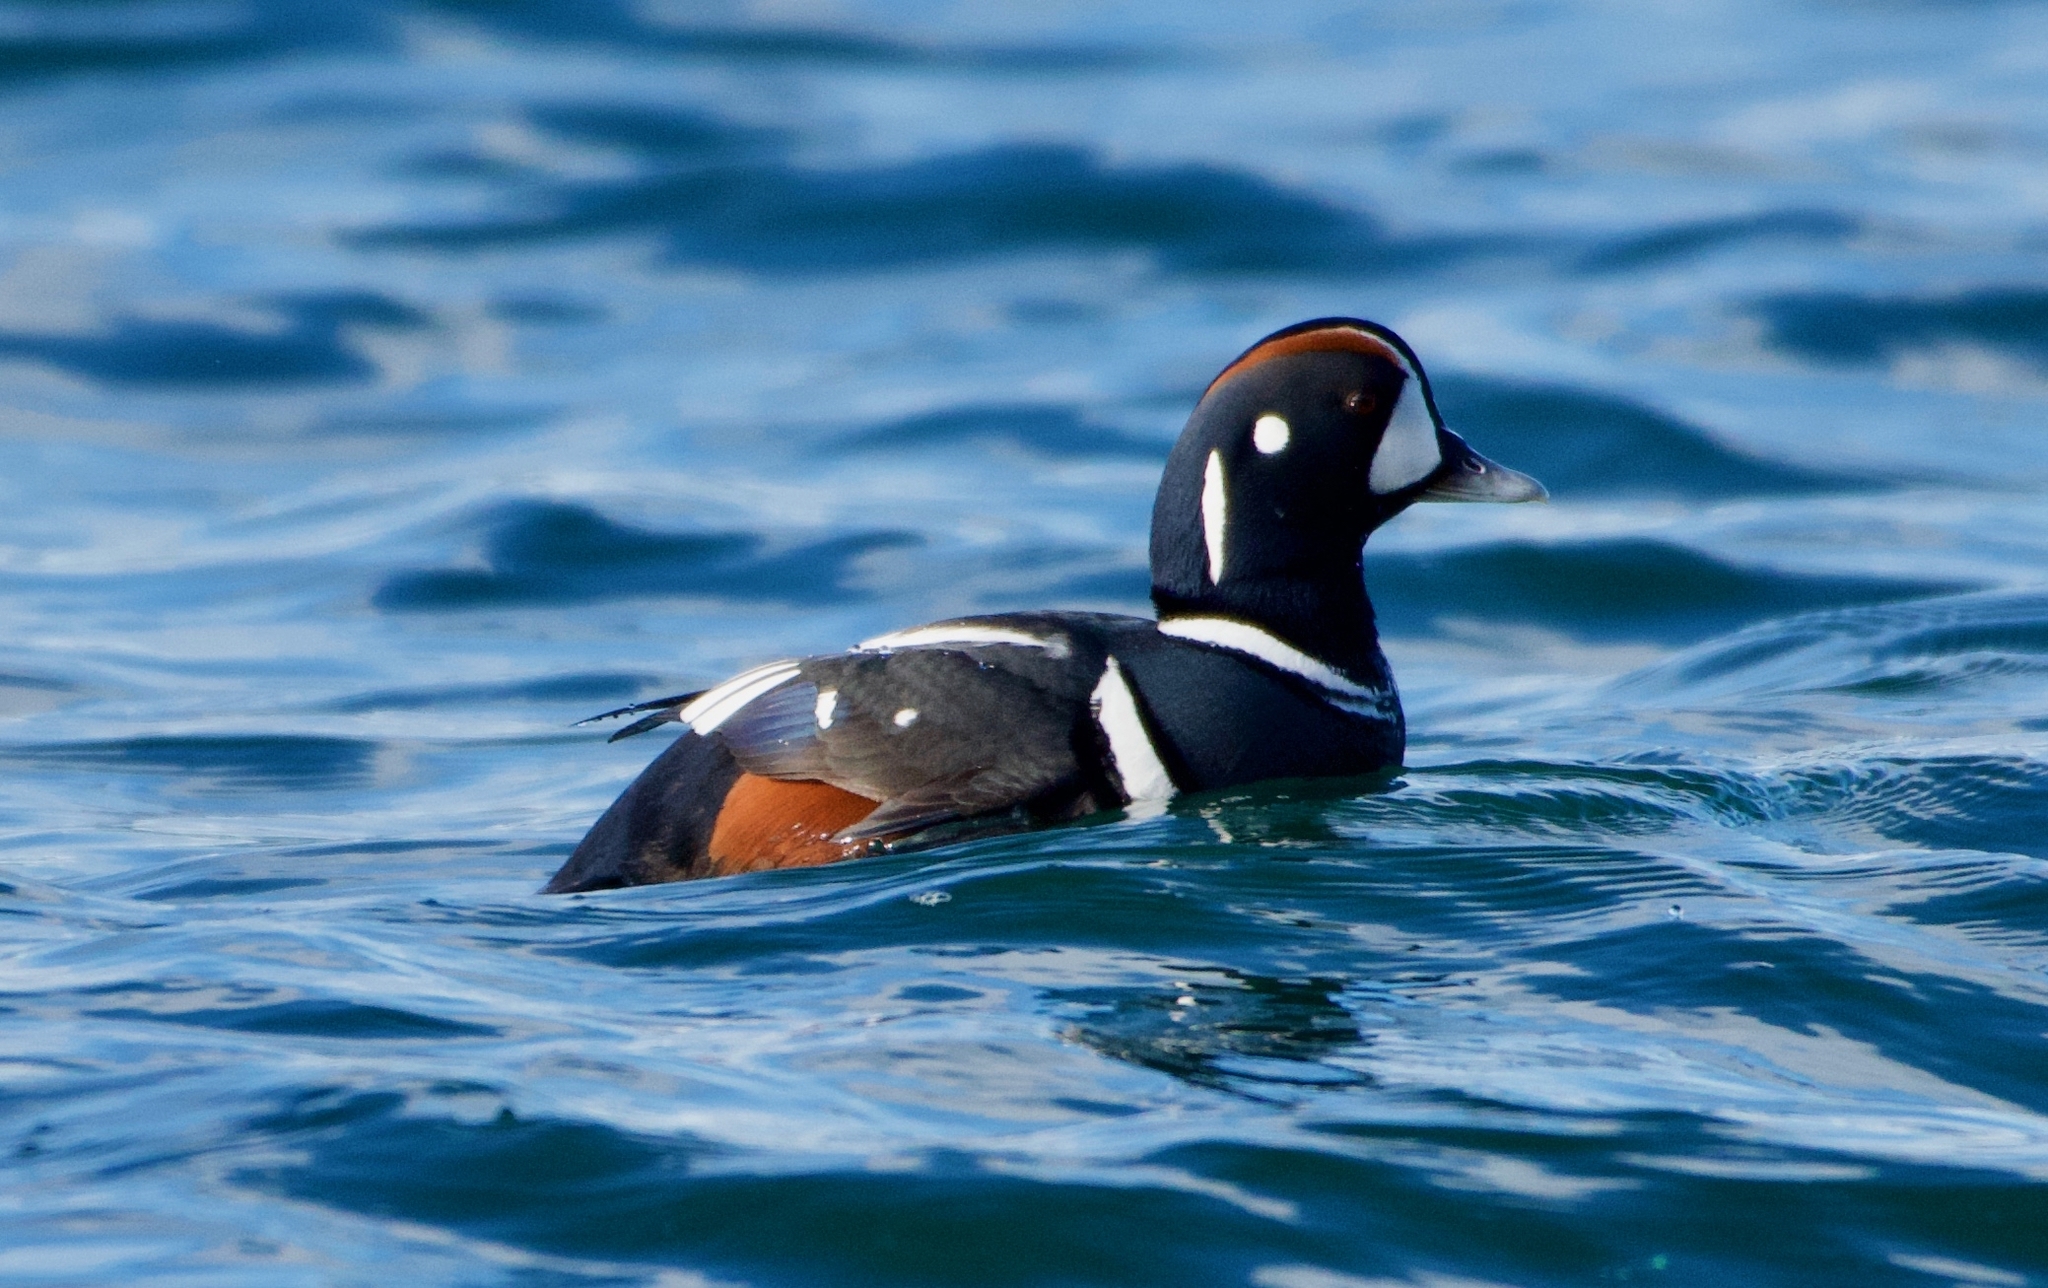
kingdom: Animalia
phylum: Chordata
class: Aves
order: Anseriformes
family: Anatidae
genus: Histrionicus
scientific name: Histrionicus histrionicus
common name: Harlequin duck
